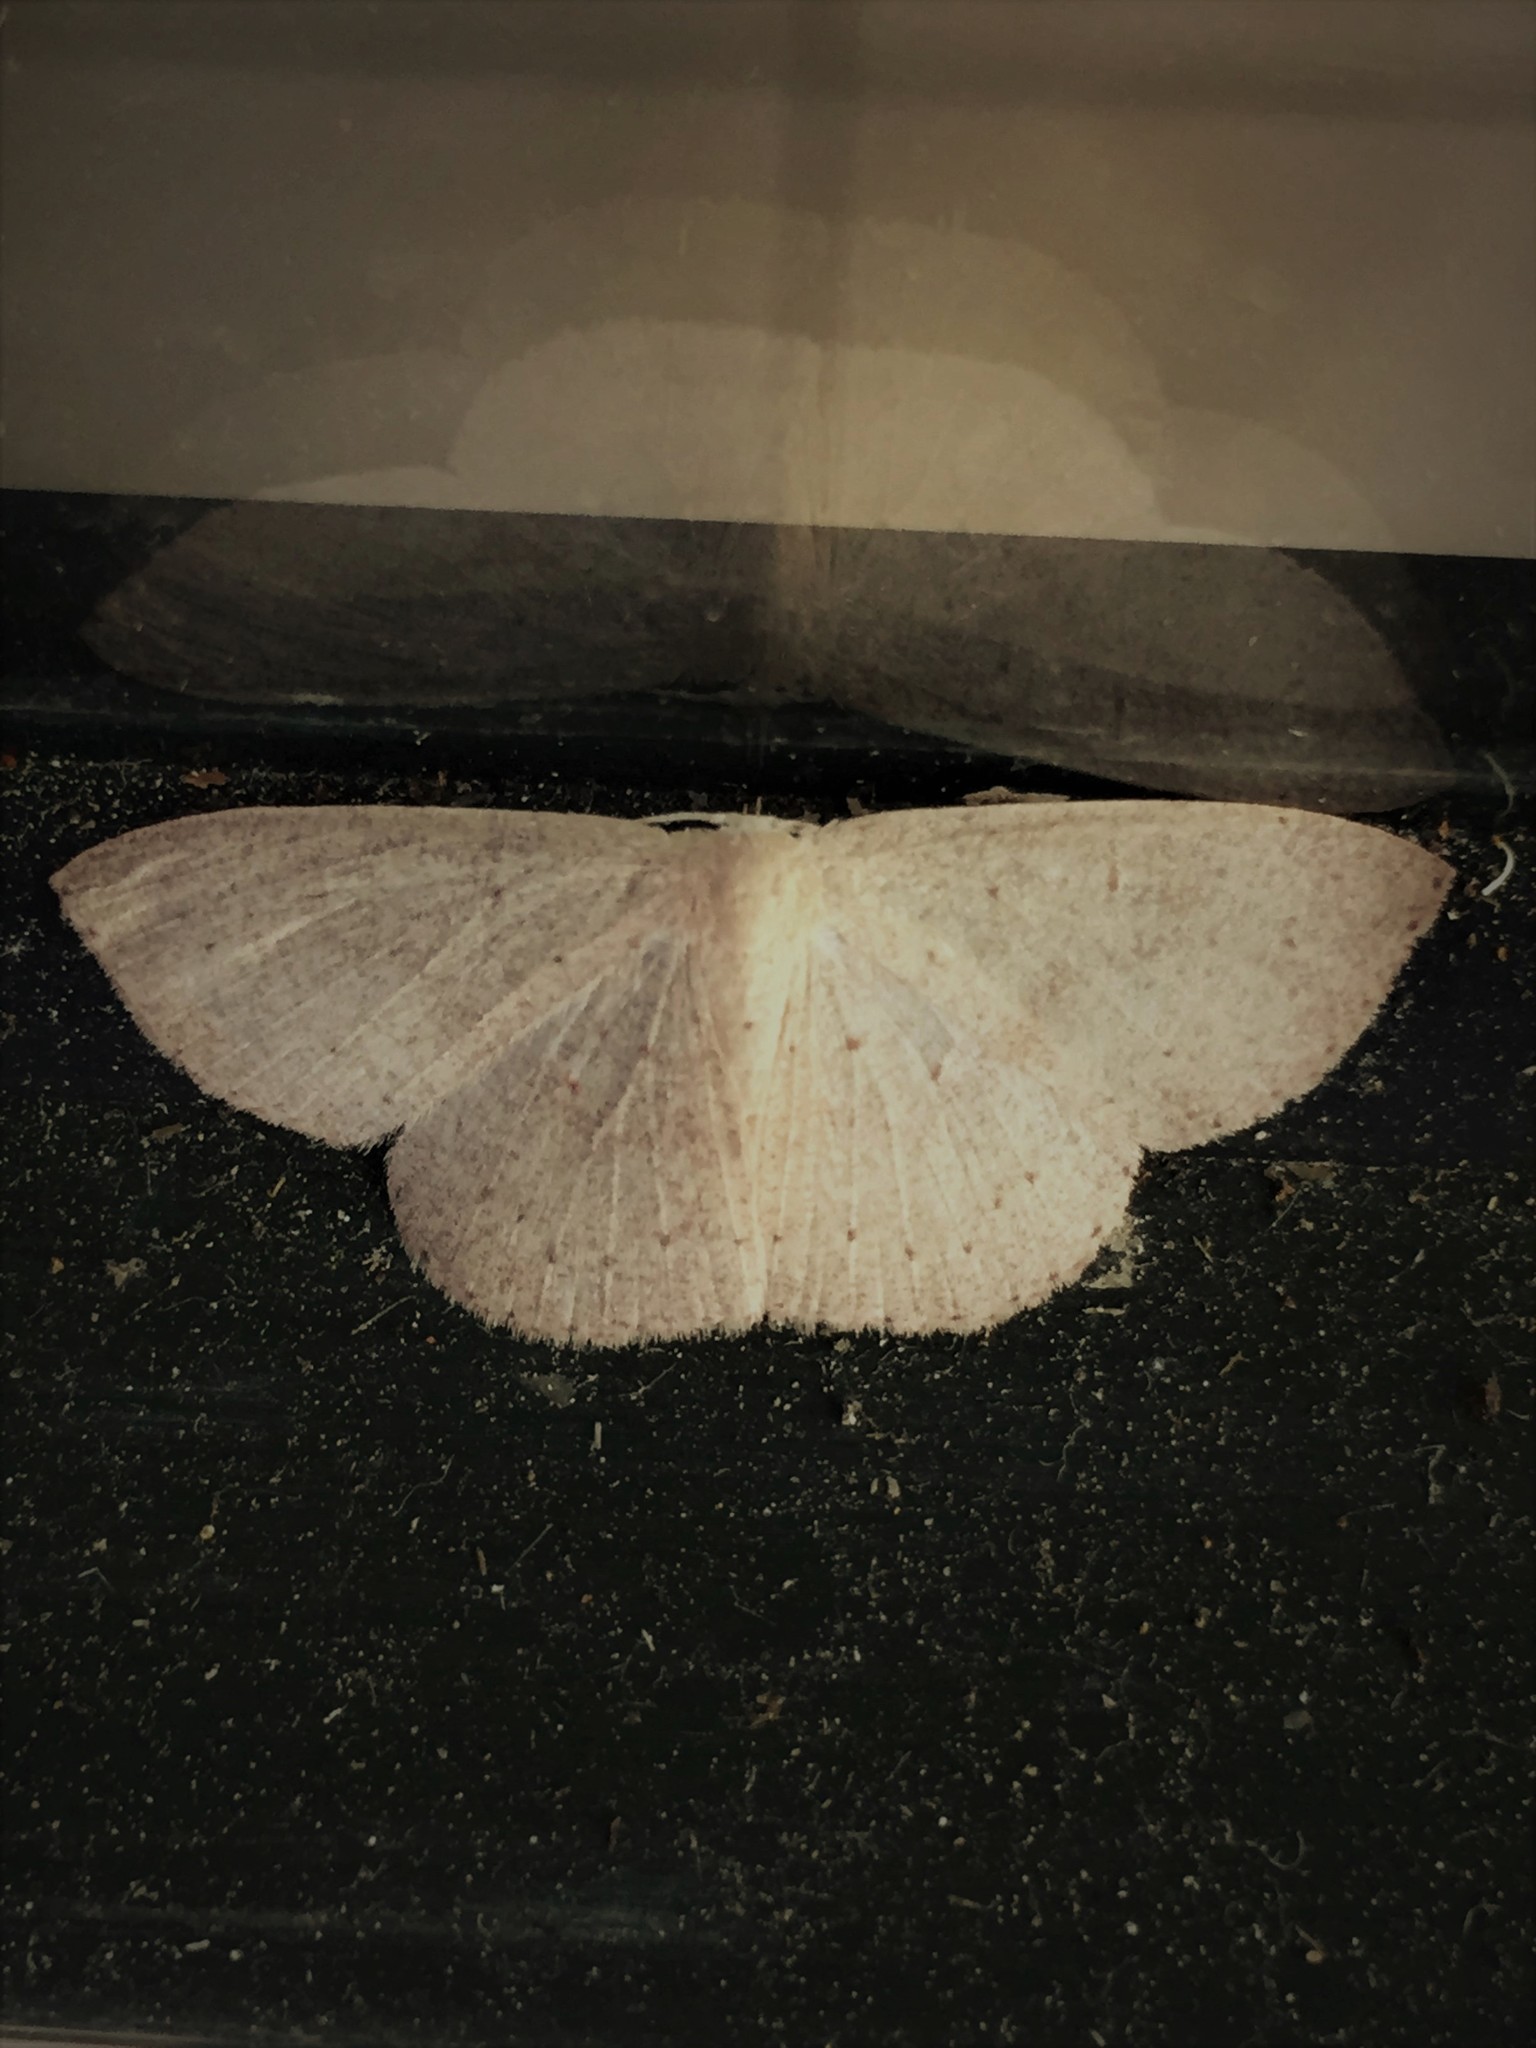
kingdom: Animalia
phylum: Arthropoda
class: Insecta
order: Lepidoptera
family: Geometridae
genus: Cyclophora
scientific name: Cyclophora obstataria
